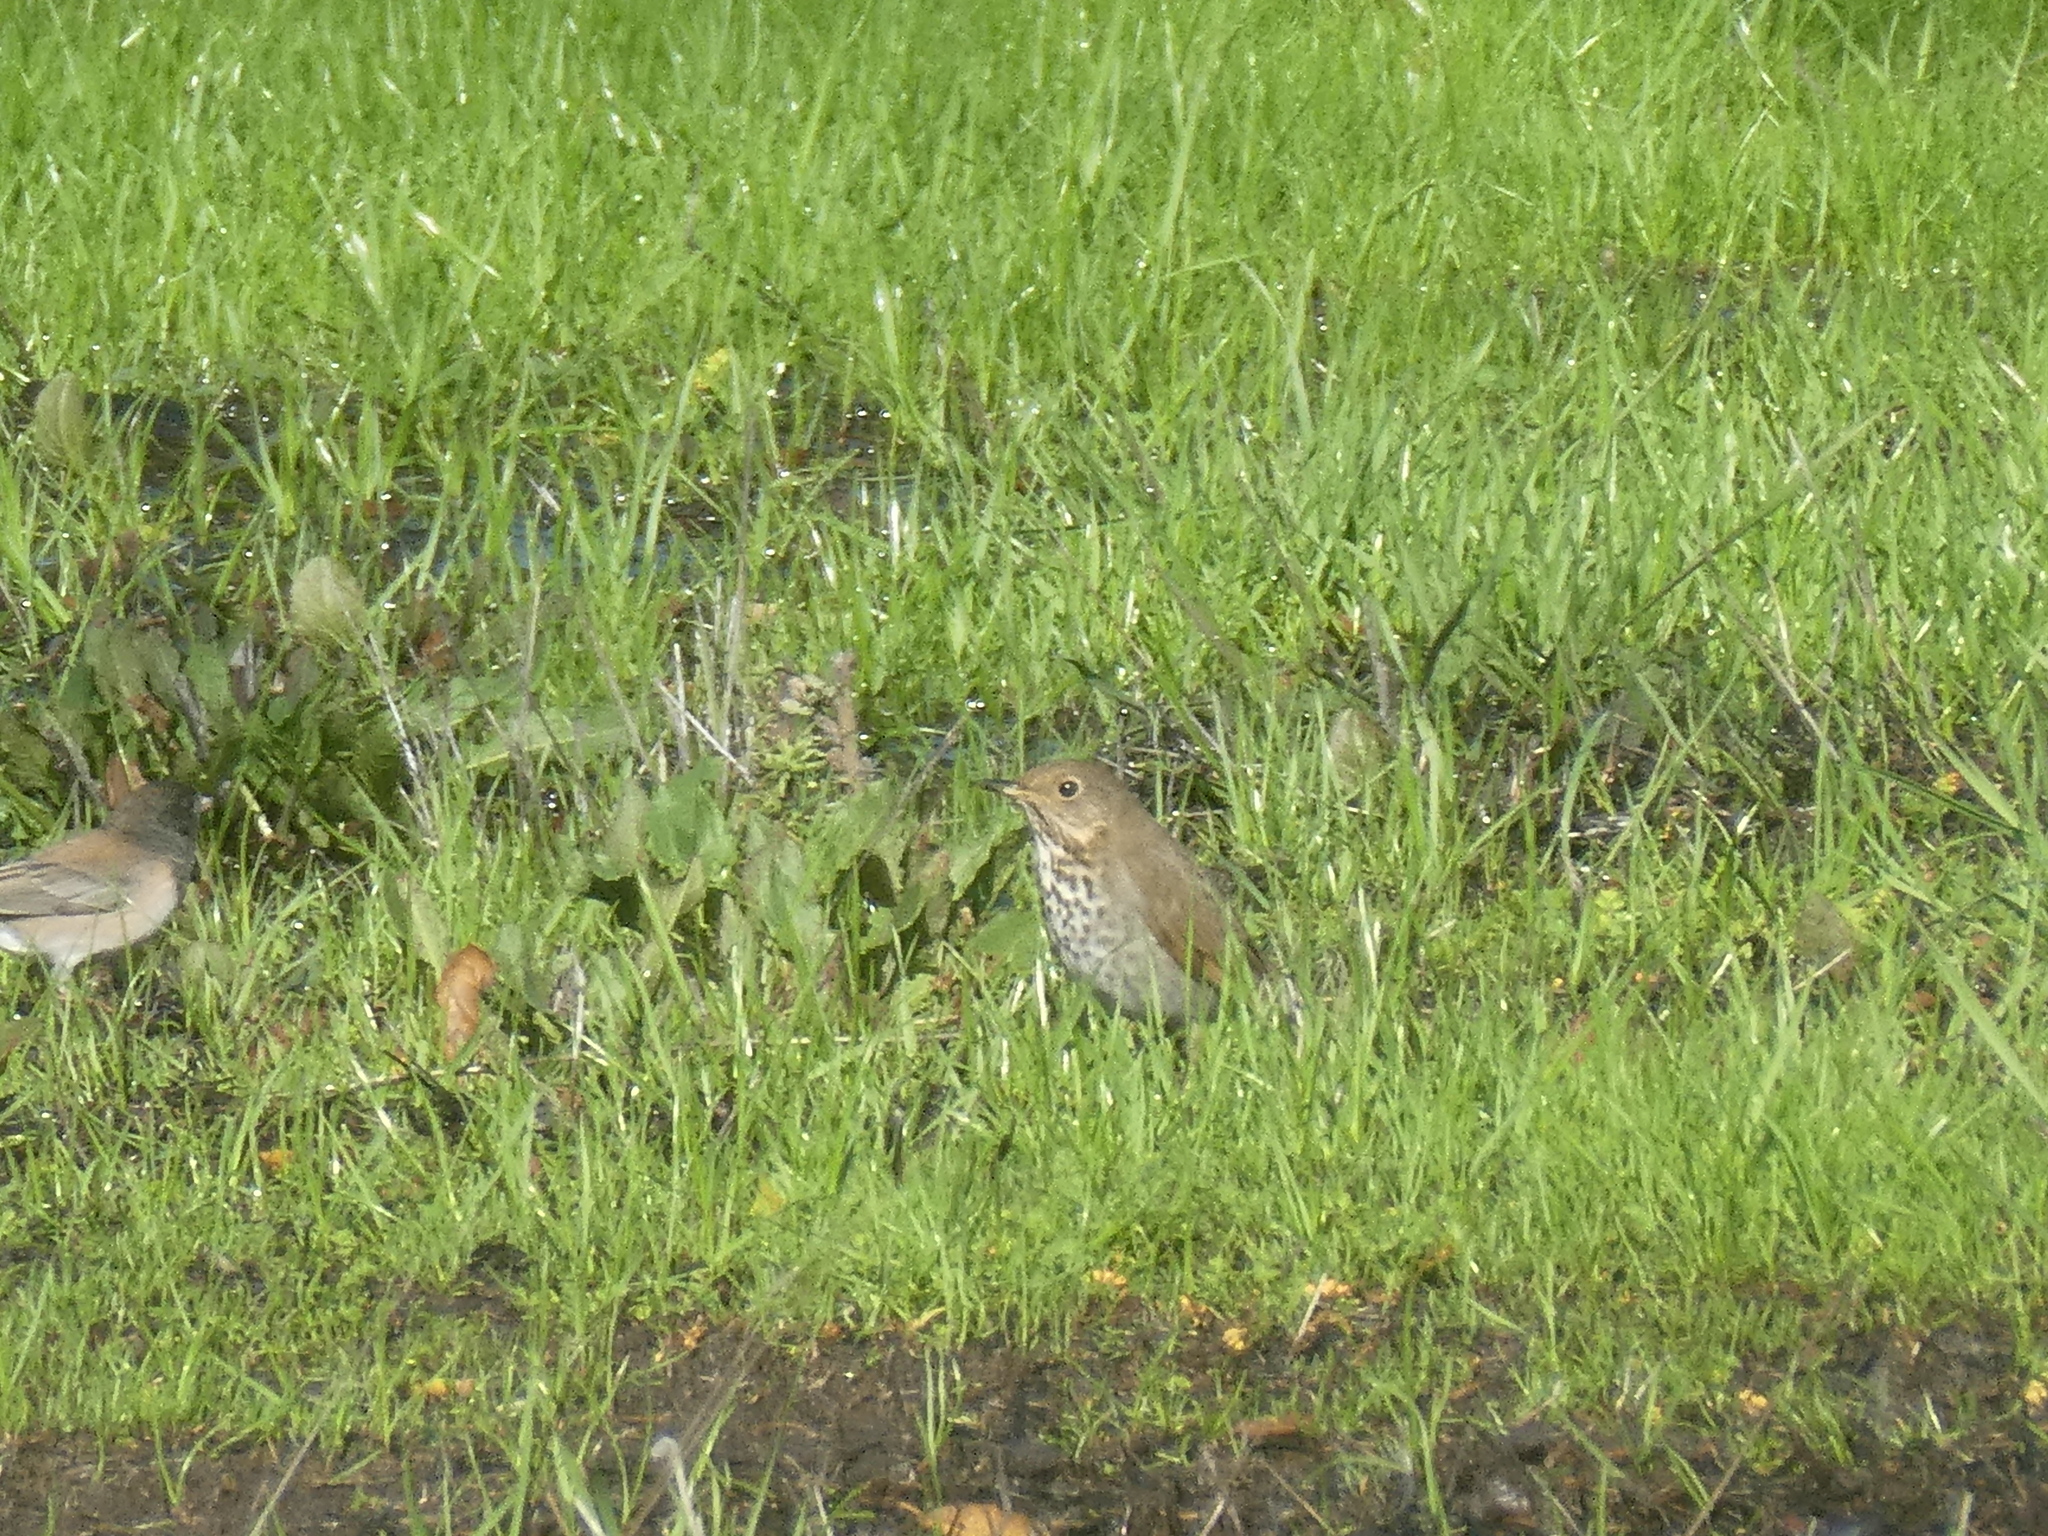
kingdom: Animalia
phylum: Chordata
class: Aves
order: Passeriformes
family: Turdidae
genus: Catharus
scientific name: Catharus guttatus
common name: Hermit thrush
